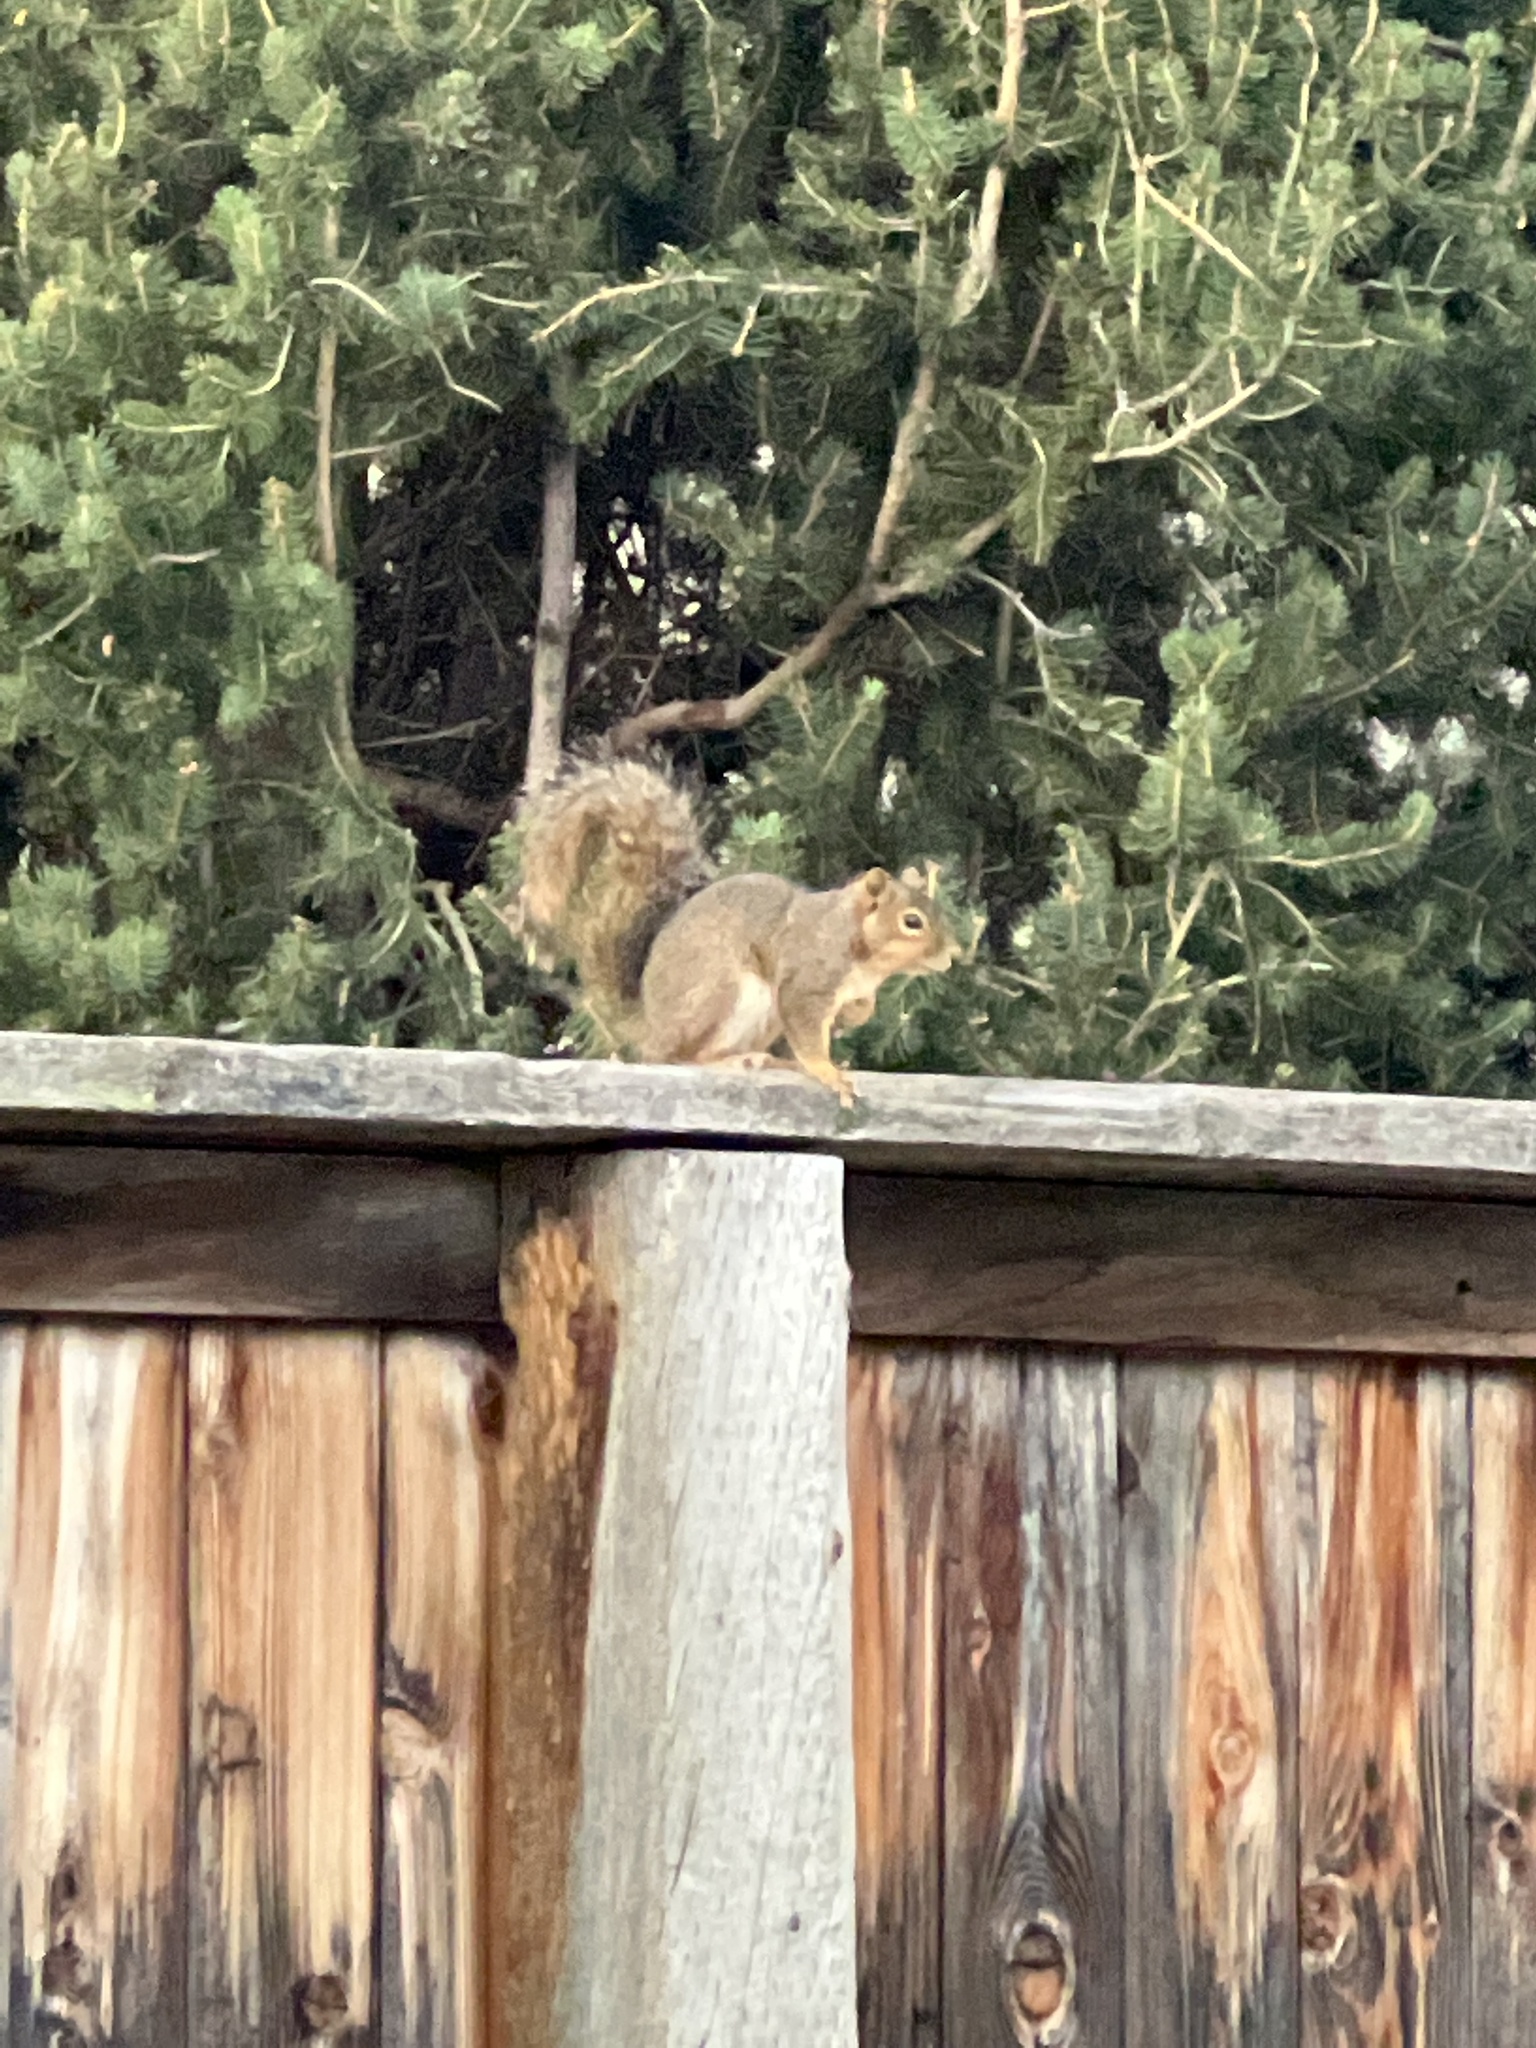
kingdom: Animalia
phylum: Chordata
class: Mammalia
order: Rodentia
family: Sciuridae
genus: Sciurus
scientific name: Sciurus niger
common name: Fox squirrel
